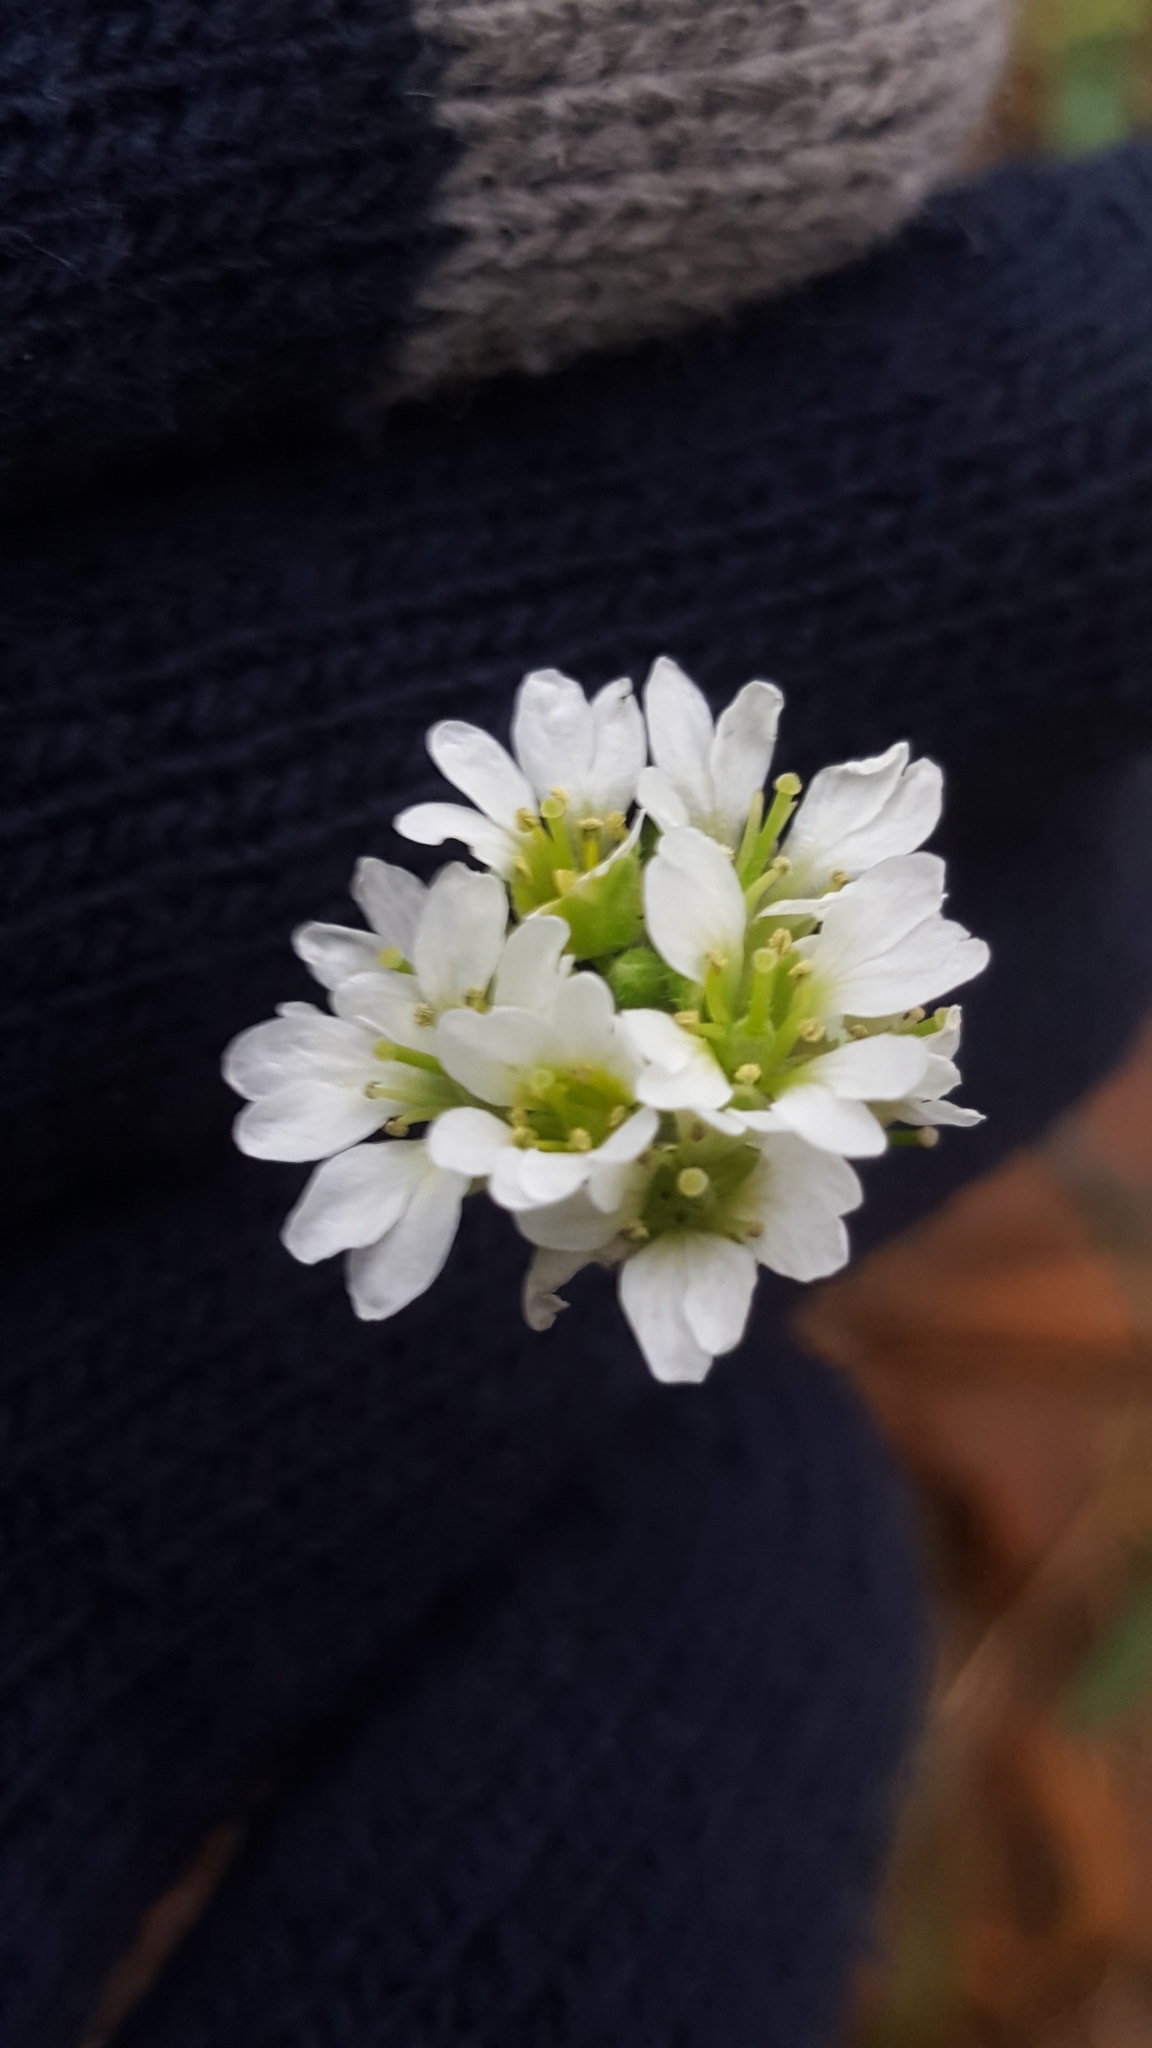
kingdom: Plantae
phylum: Tracheophyta
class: Magnoliopsida
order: Brassicales
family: Brassicaceae
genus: Berteroa
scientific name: Berteroa incana
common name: Hoary alison
